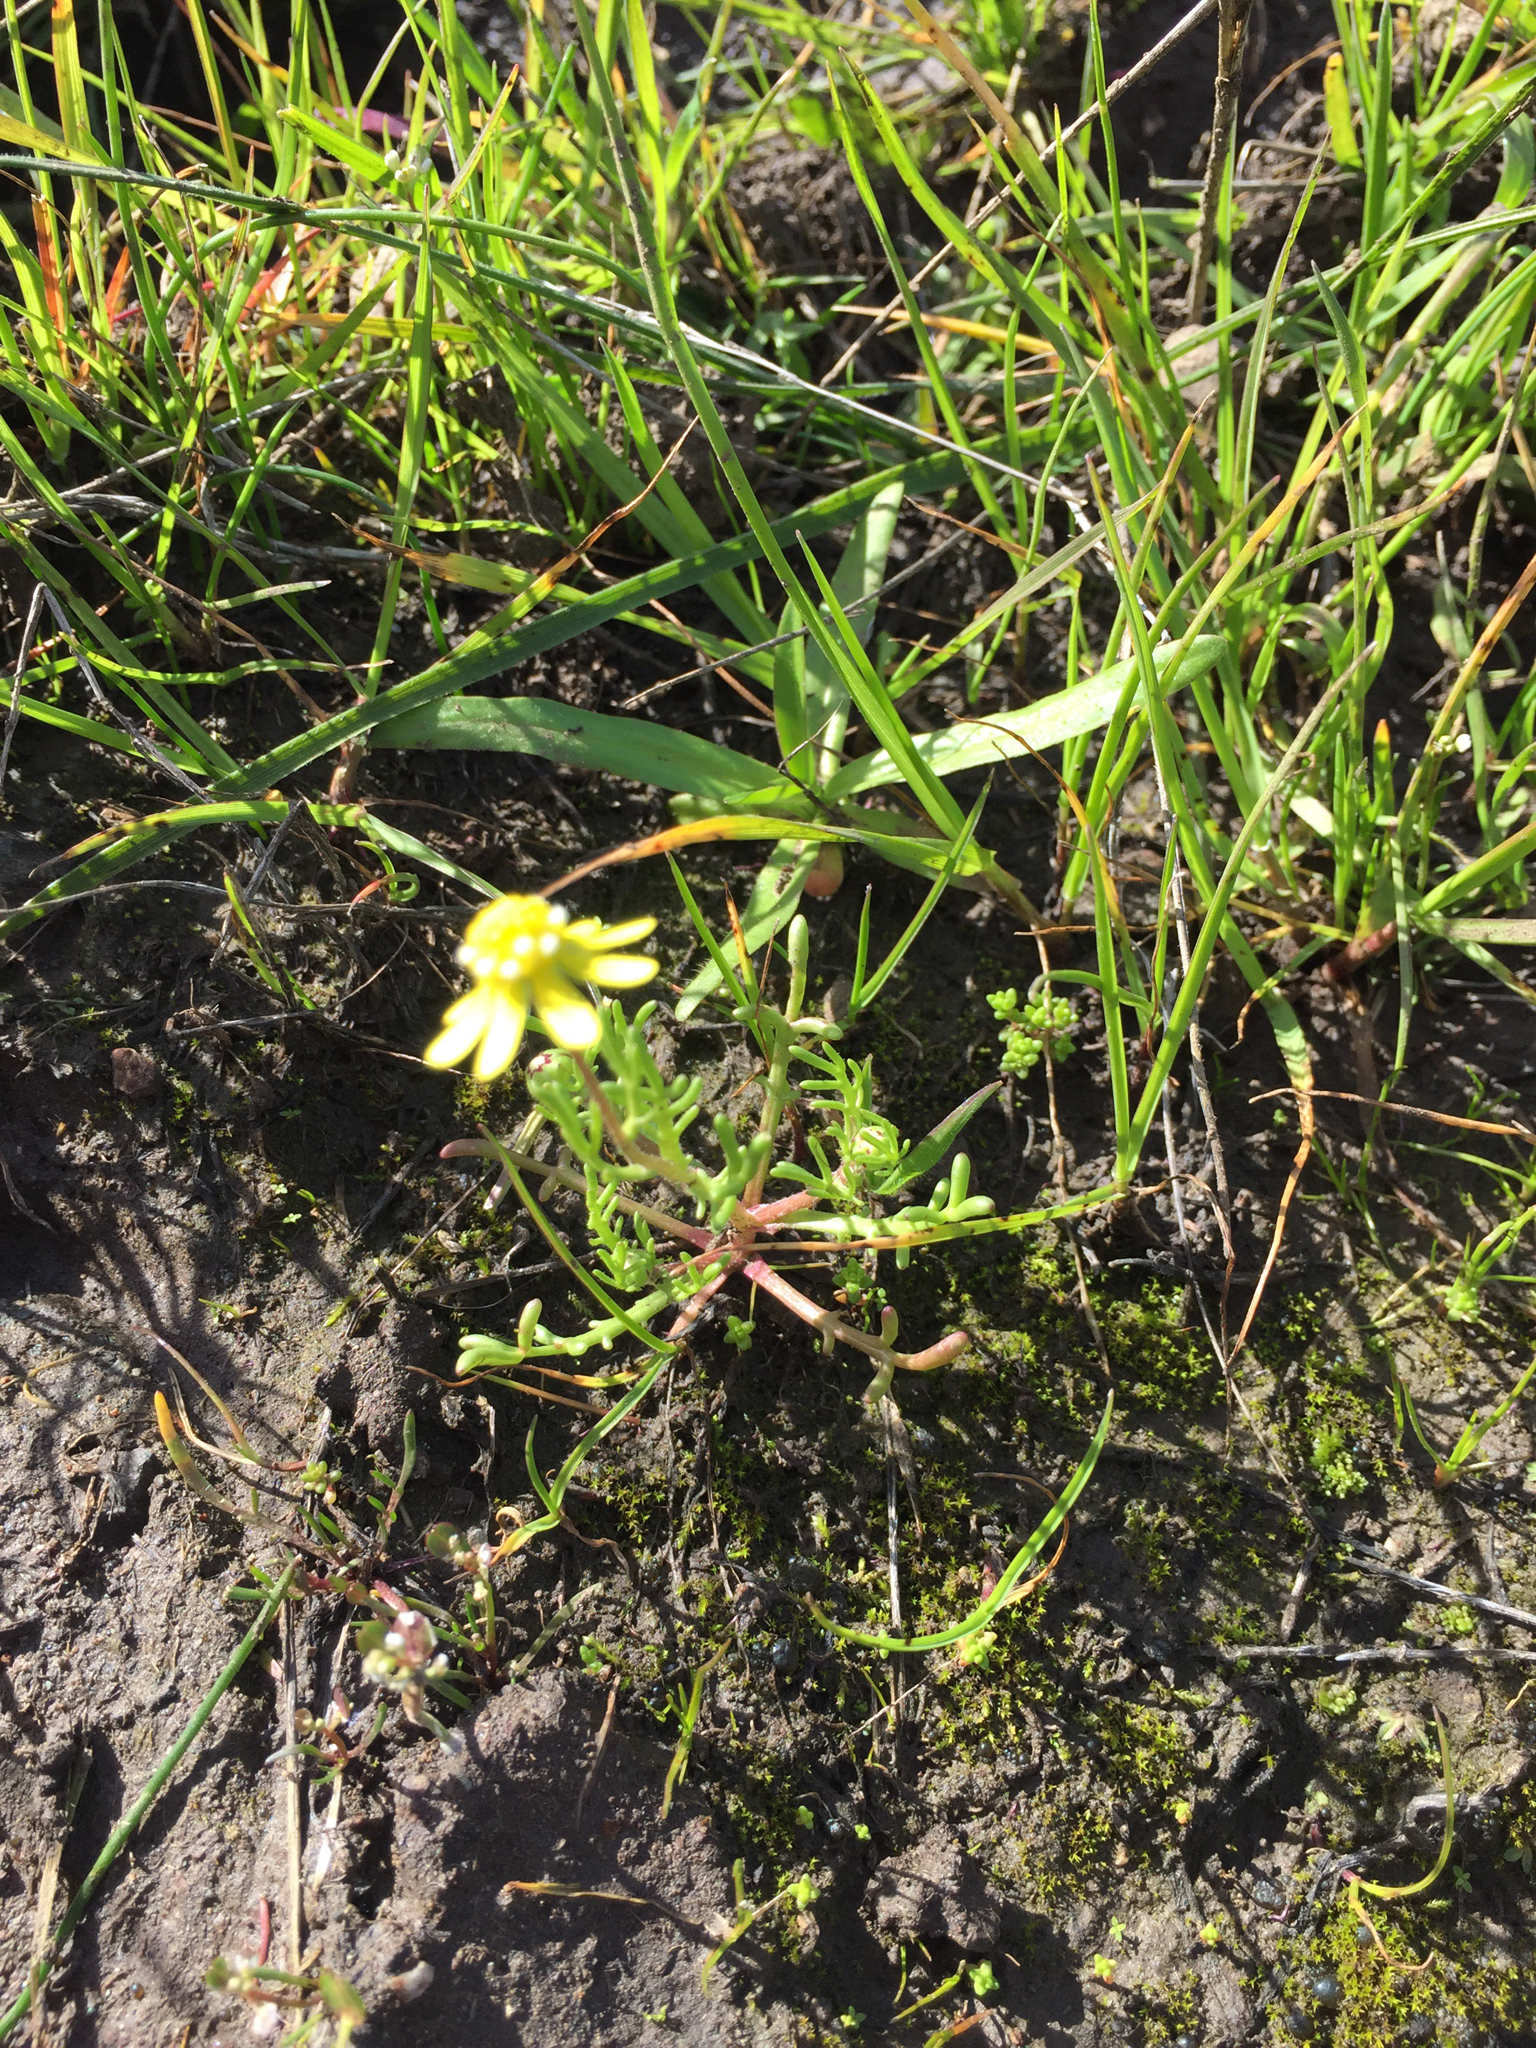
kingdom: Plantae
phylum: Tracheophyta
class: Magnoliopsida
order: Asterales
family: Asteraceae
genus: Blennosperma
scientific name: Blennosperma nanum
